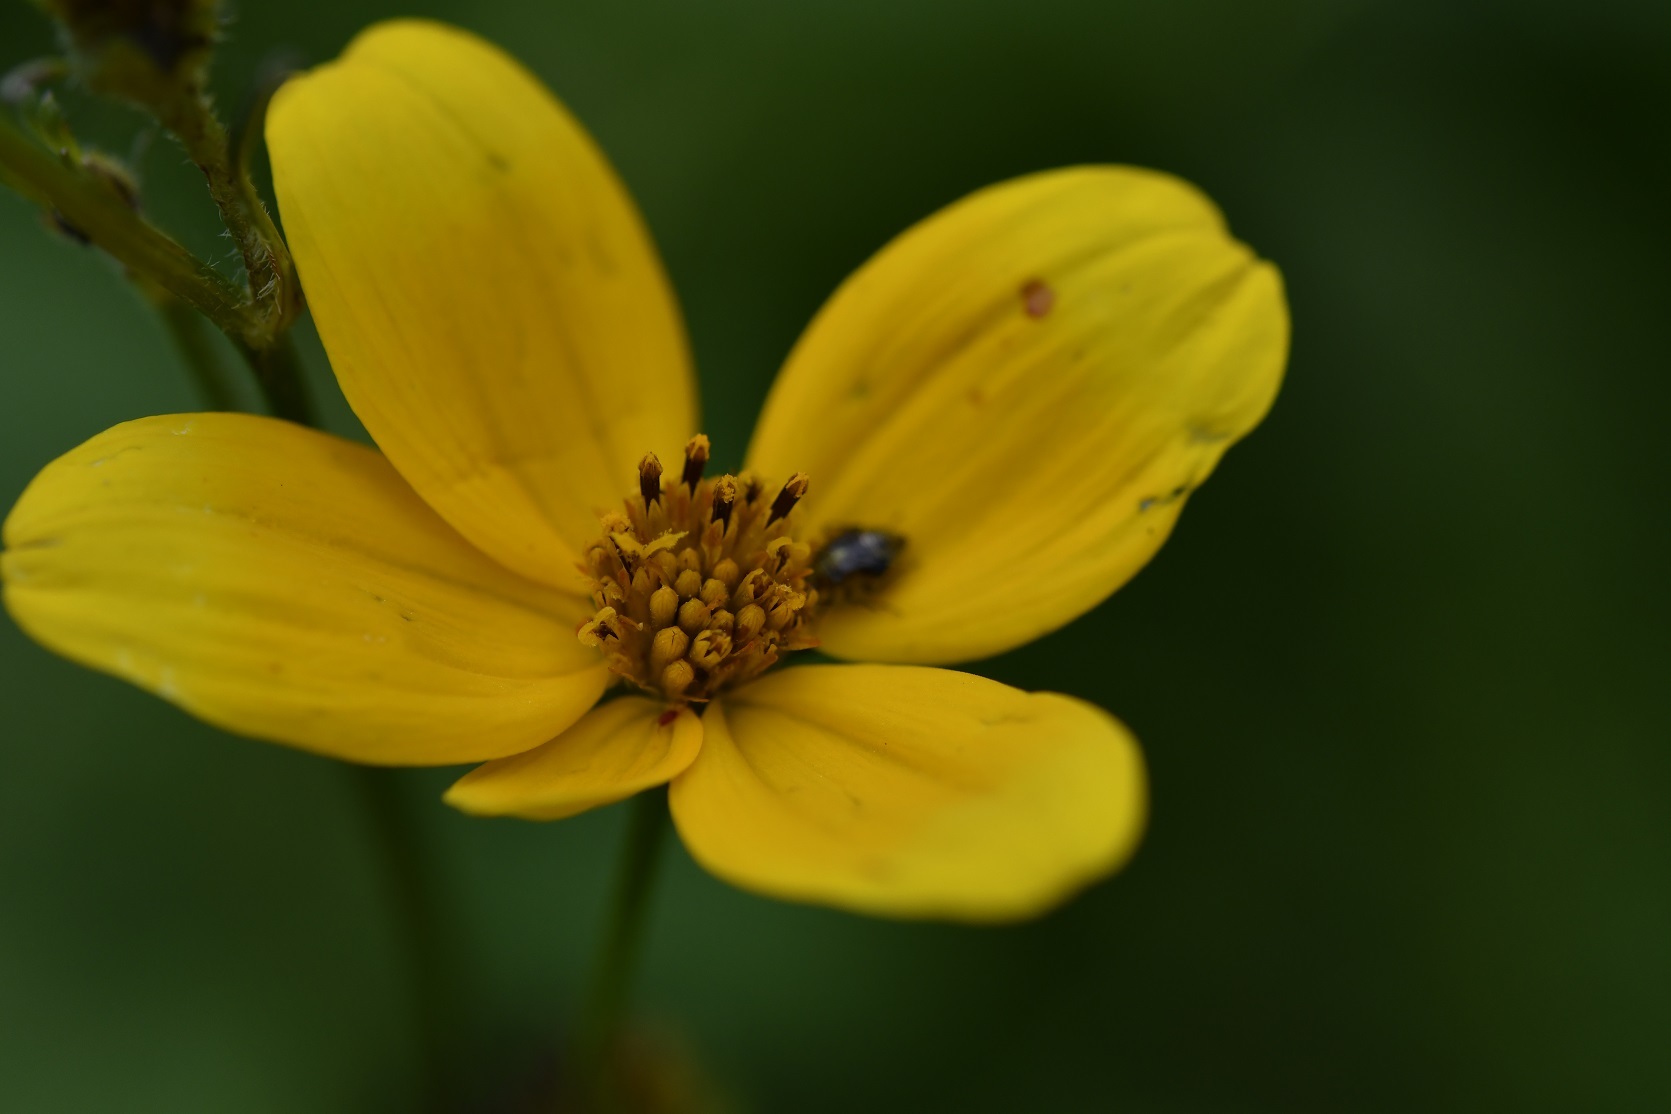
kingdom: Plantae
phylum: Tracheophyta
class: Magnoliopsida
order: Asterales
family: Asteraceae
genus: Bidens
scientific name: Bidens triplinervia
